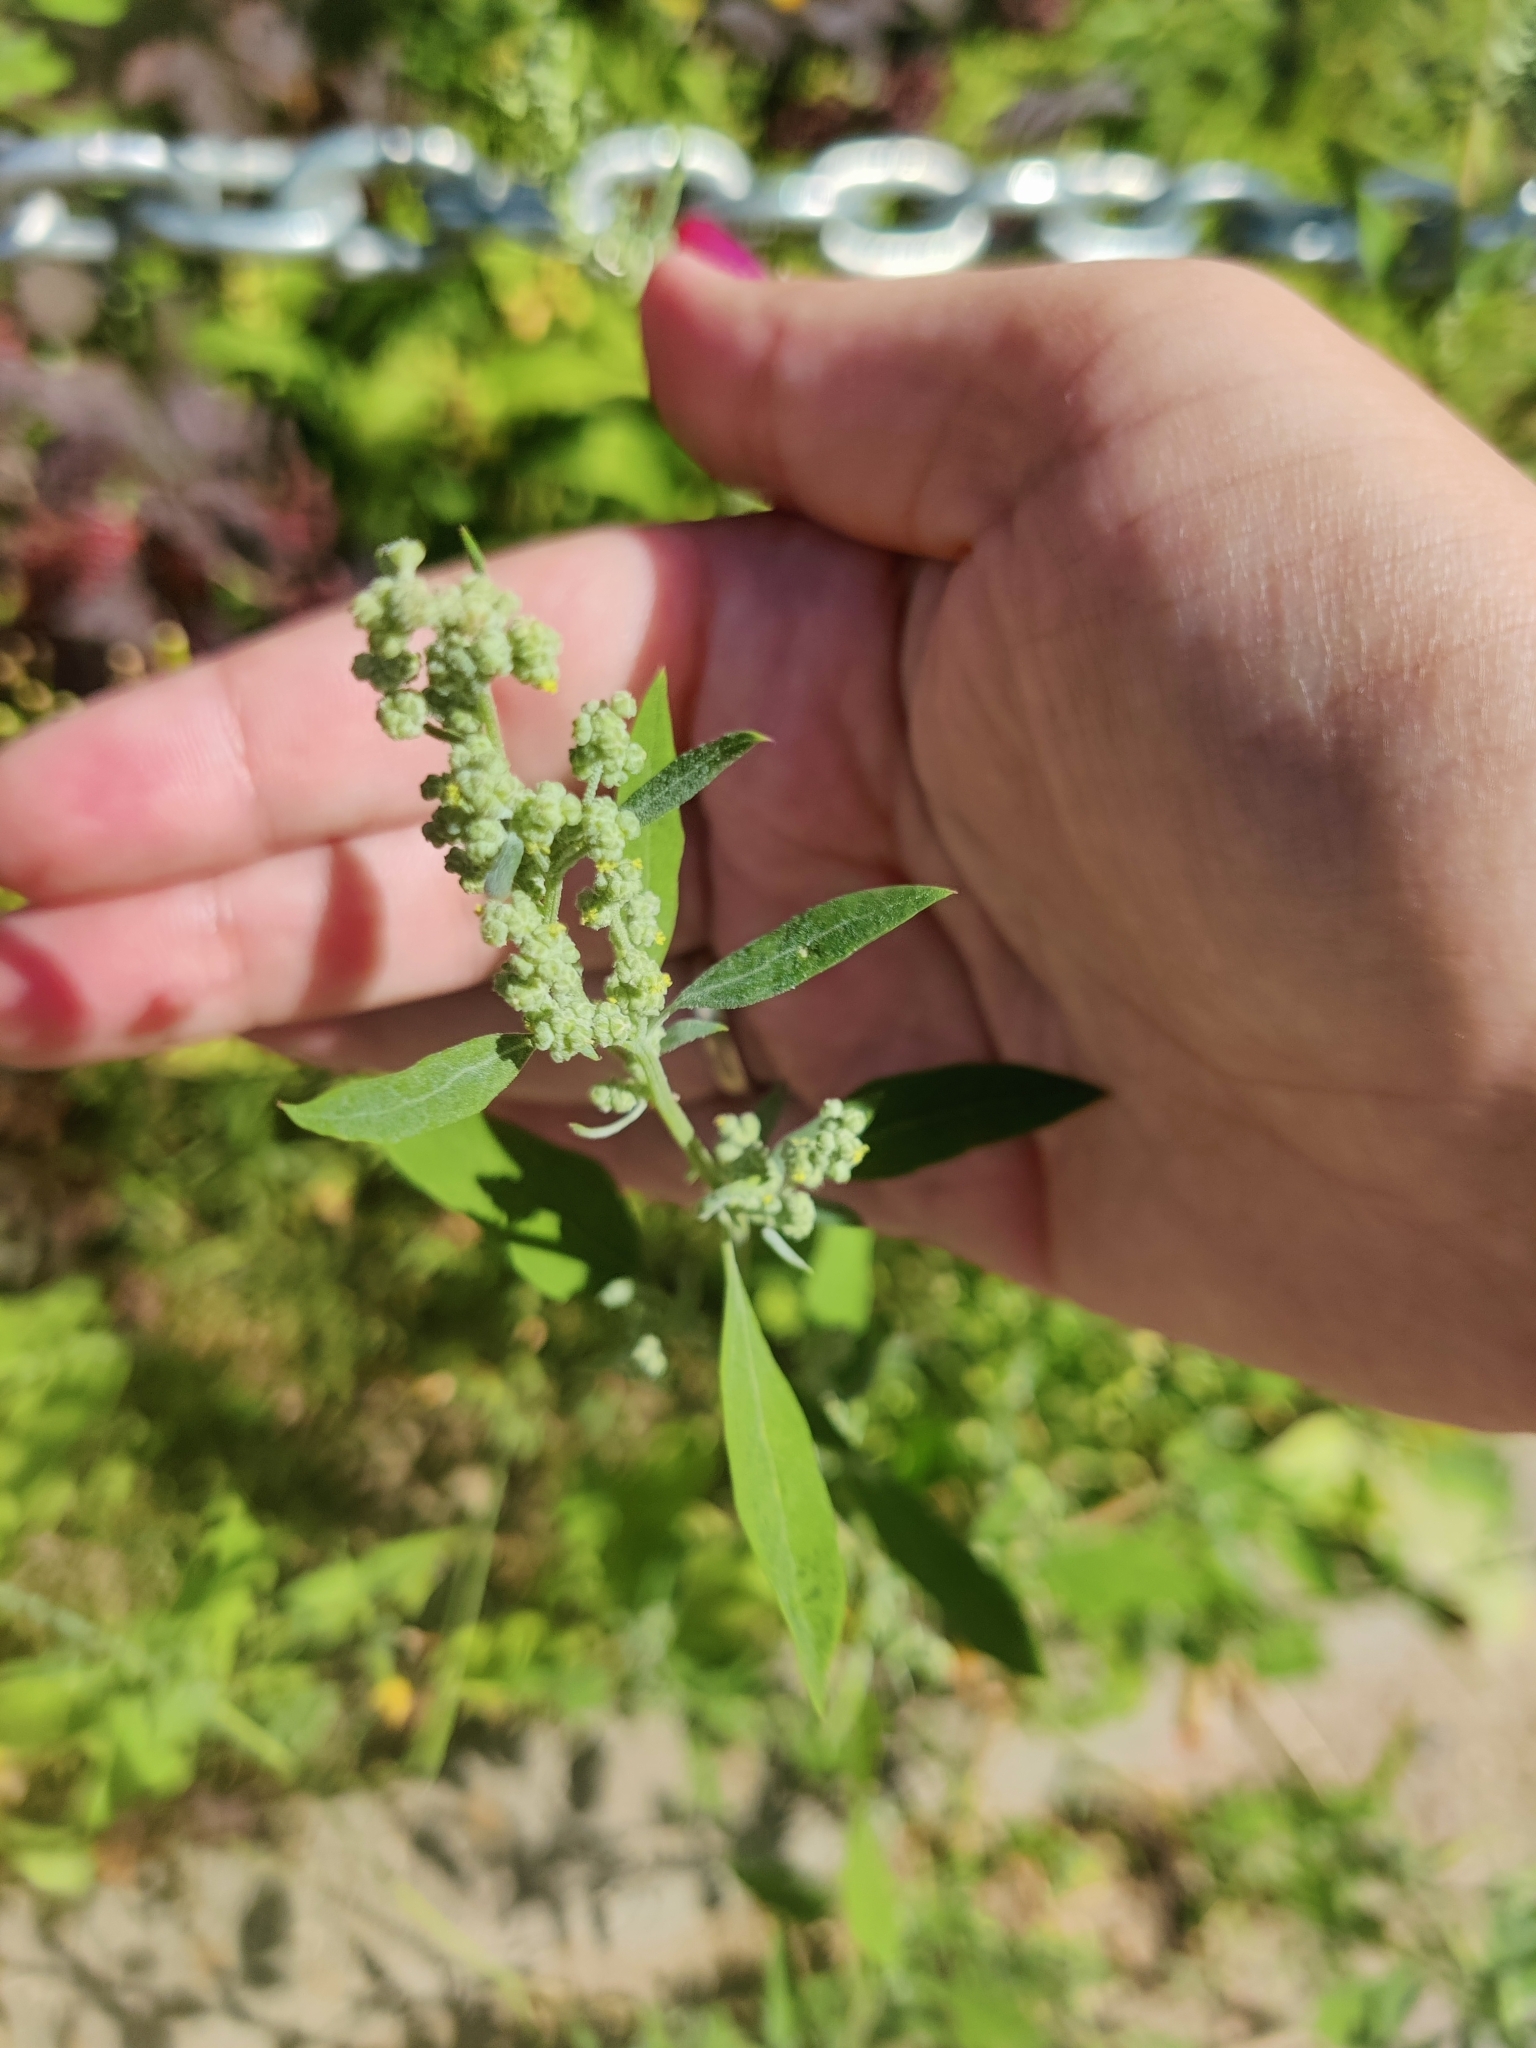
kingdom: Plantae
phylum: Tracheophyta
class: Magnoliopsida
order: Caryophyllales
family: Amaranthaceae
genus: Chenopodium
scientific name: Chenopodium album
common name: Fat-hen
